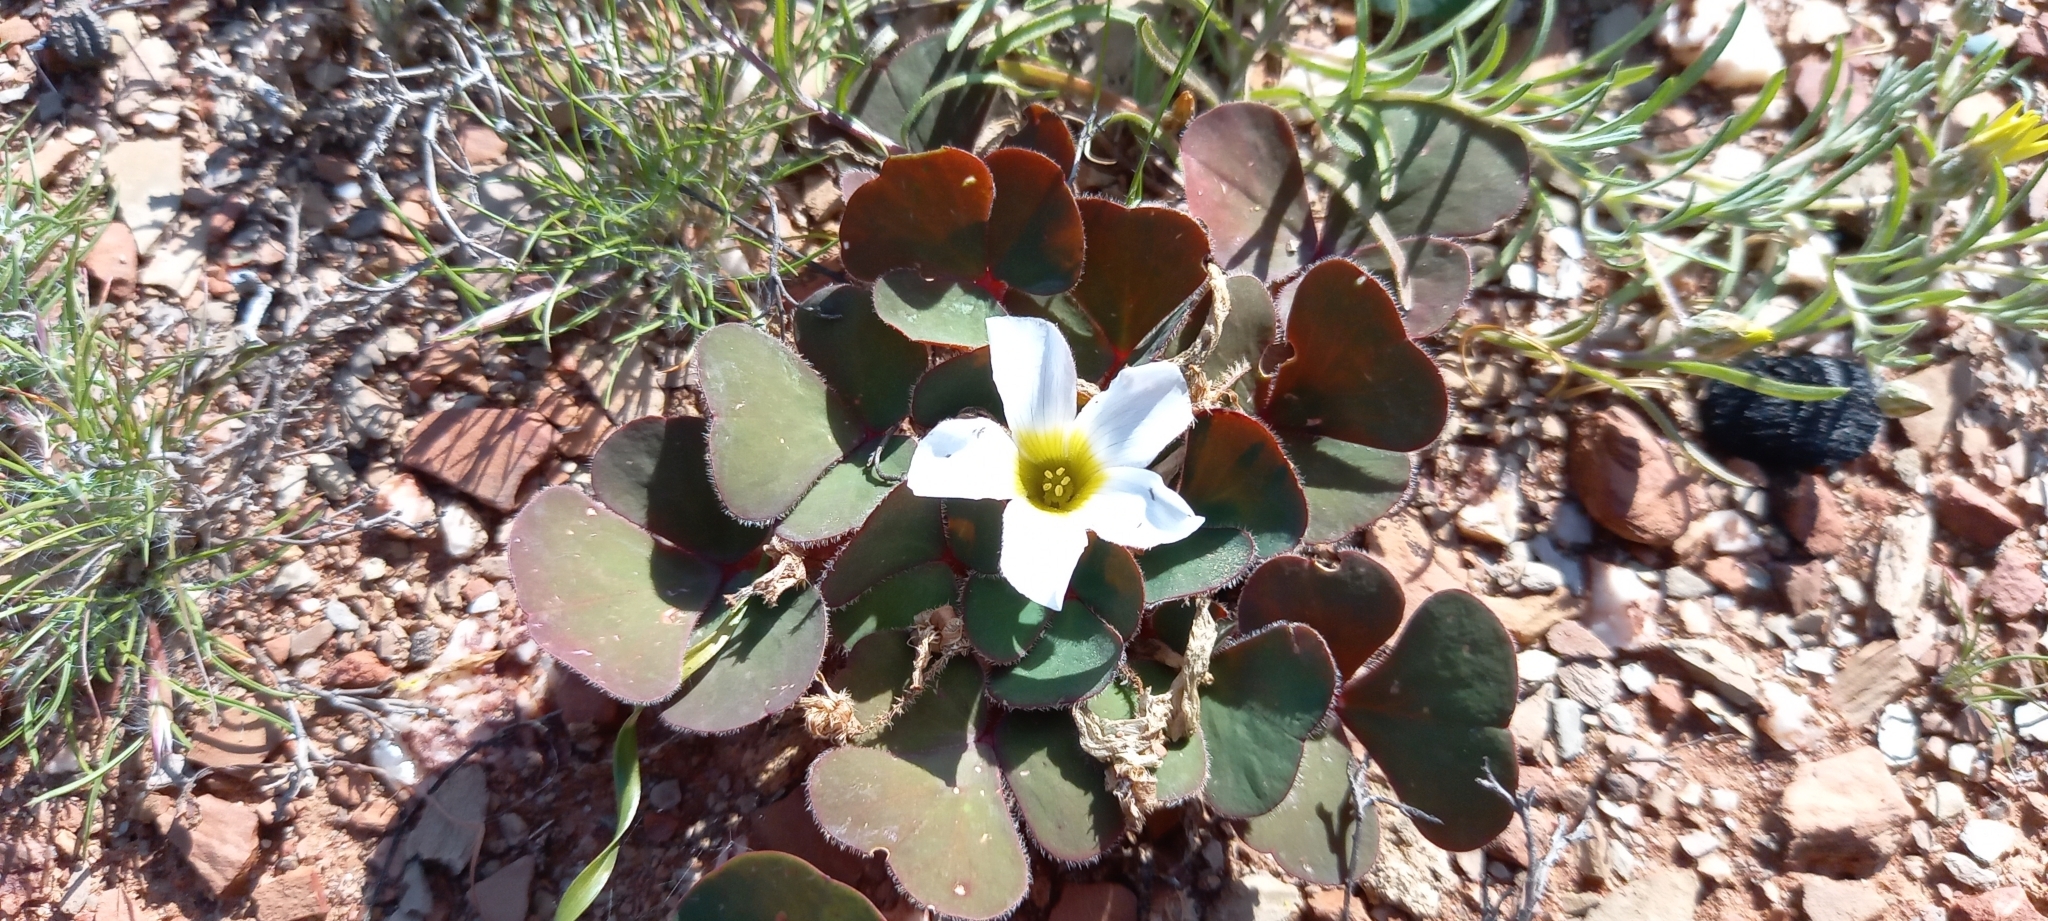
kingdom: Plantae
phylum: Tracheophyta
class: Magnoliopsida
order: Oxalidales
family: Oxalidaceae
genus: Oxalis
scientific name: Oxalis purpurea
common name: Purple woodsorrel
